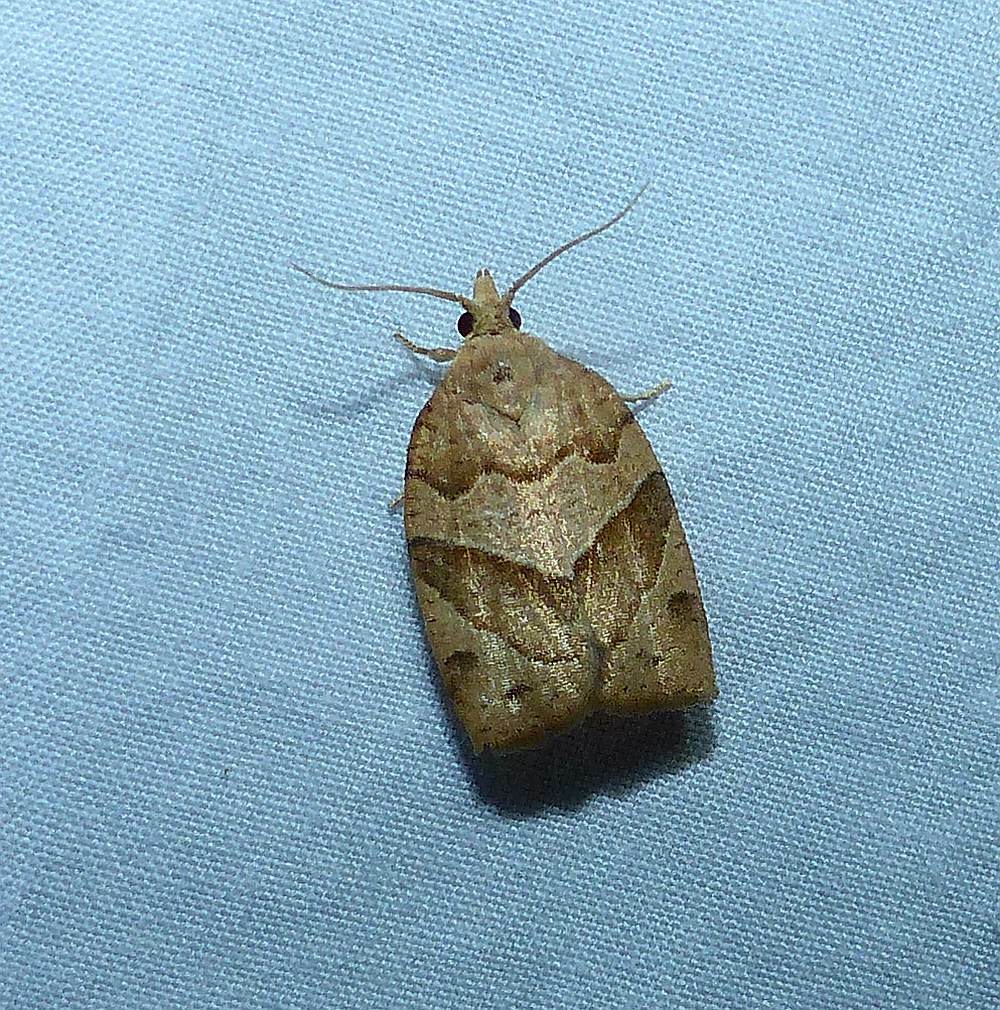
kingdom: Animalia
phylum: Arthropoda
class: Insecta
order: Lepidoptera
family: Tortricidae
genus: Pandemis
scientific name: Pandemis lamprosana
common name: Woodgrain leafroller moth
